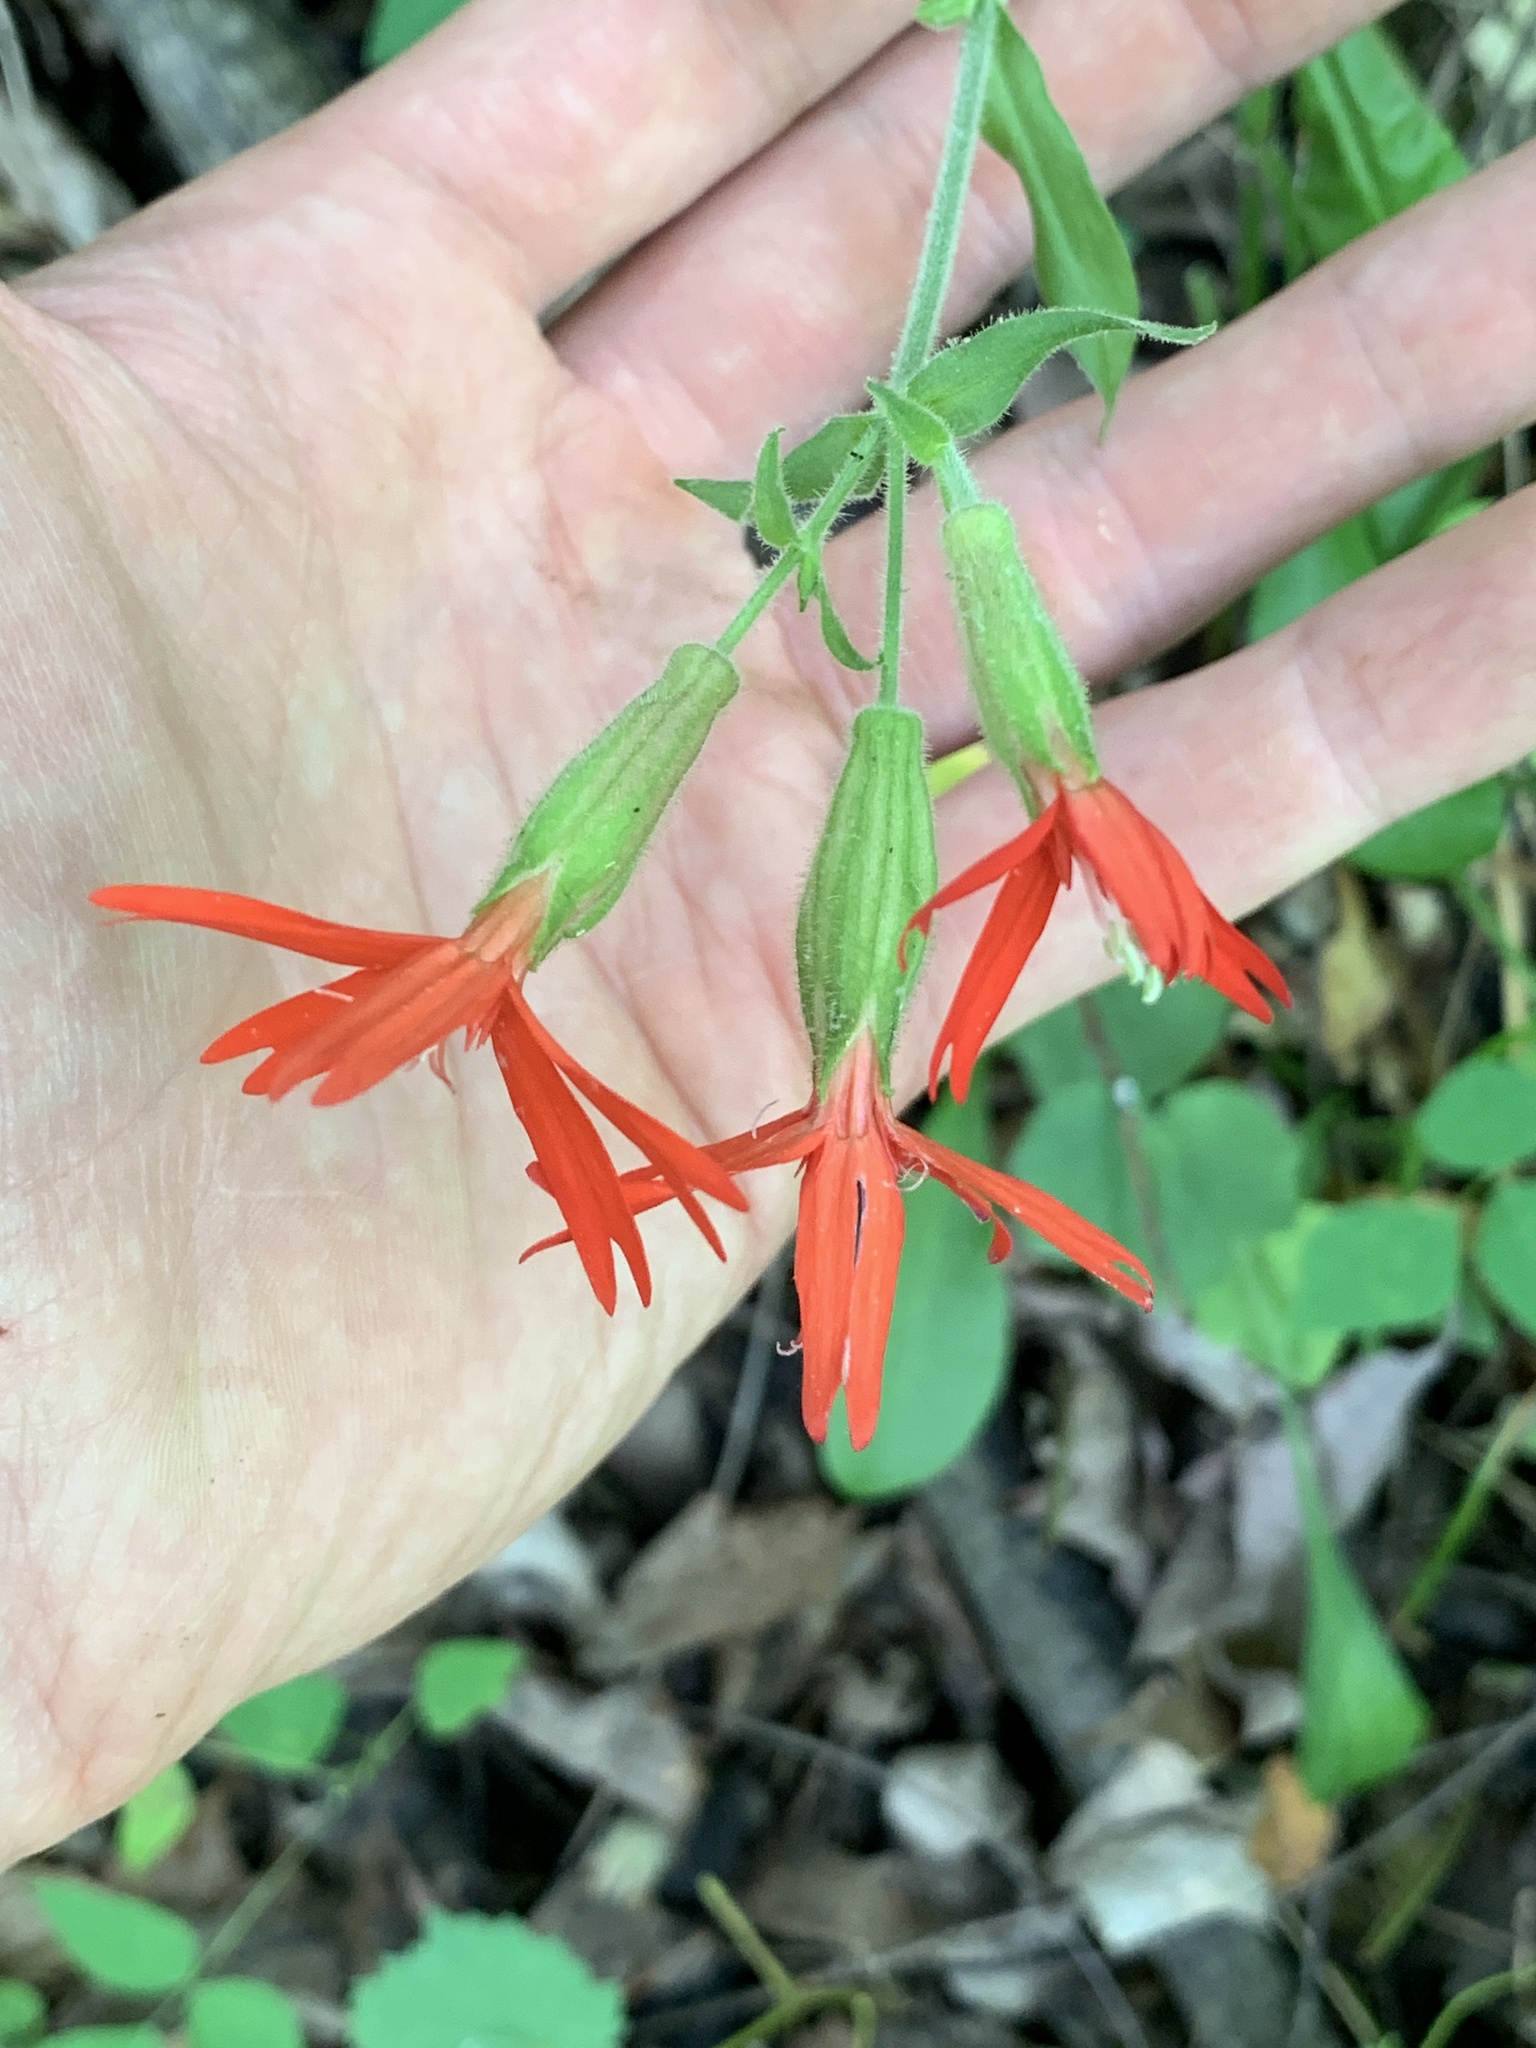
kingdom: Plantae
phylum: Tracheophyta
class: Magnoliopsida
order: Caryophyllales
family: Caryophyllaceae
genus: Silene
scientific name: Silene virginica
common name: Fire-pink
